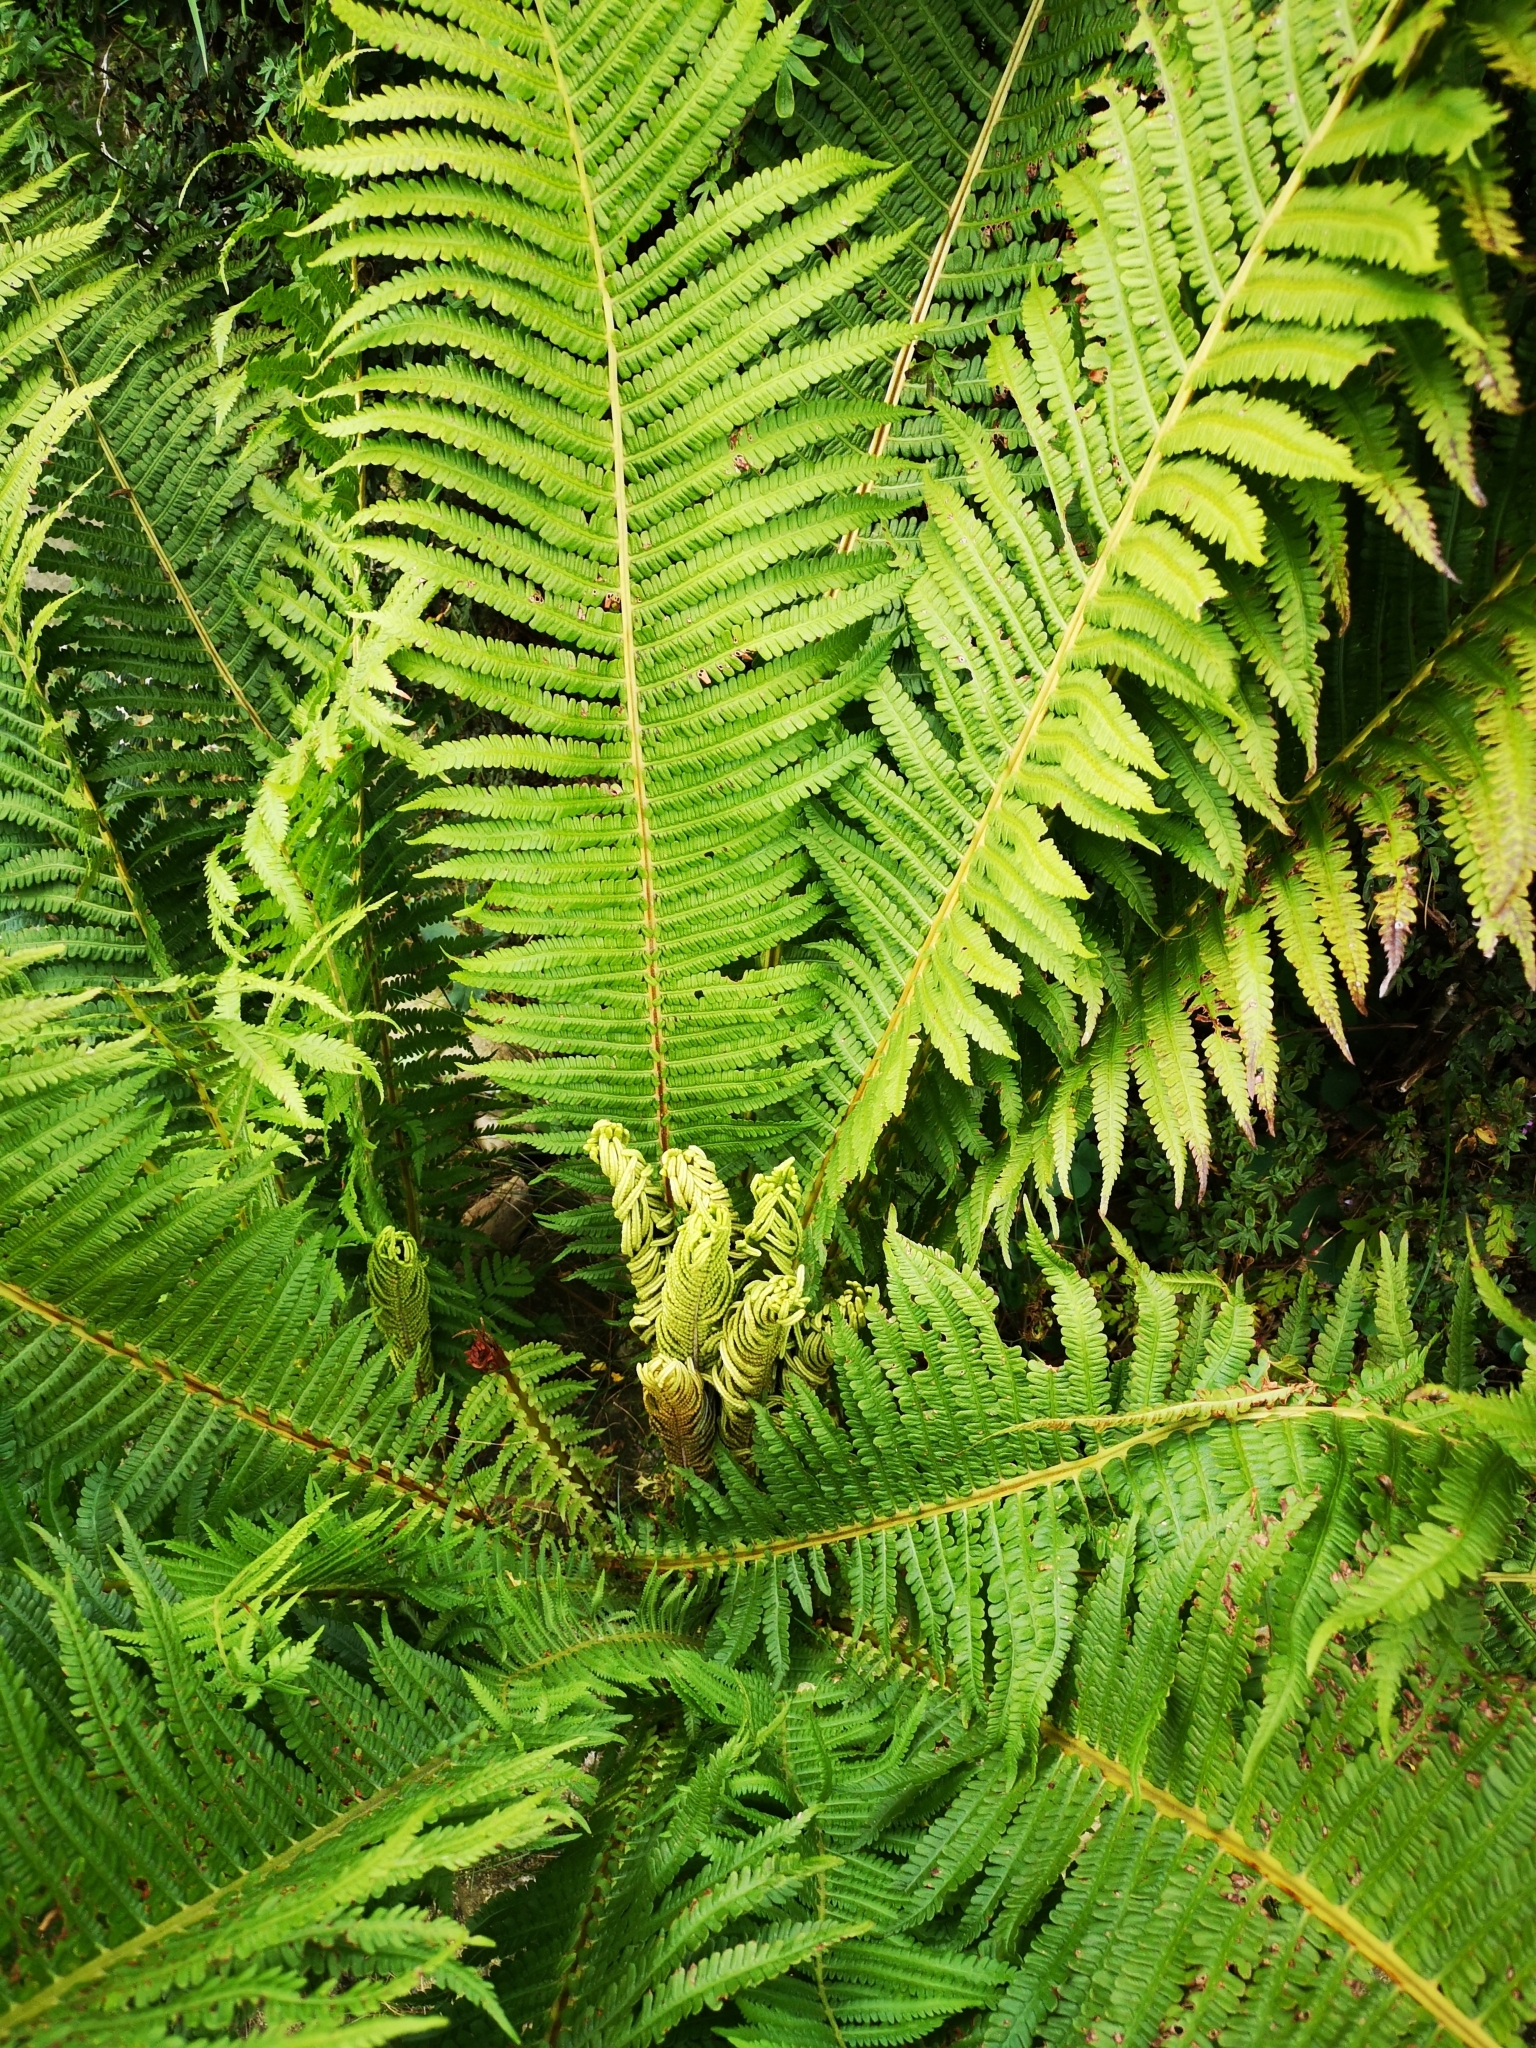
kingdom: Plantae
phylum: Tracheophyta
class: Polypodiopsida
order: Polypodiales
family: Onocleaceae
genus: Matteuccia
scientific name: Matteuccia struthiopteris
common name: Ostrich fern
